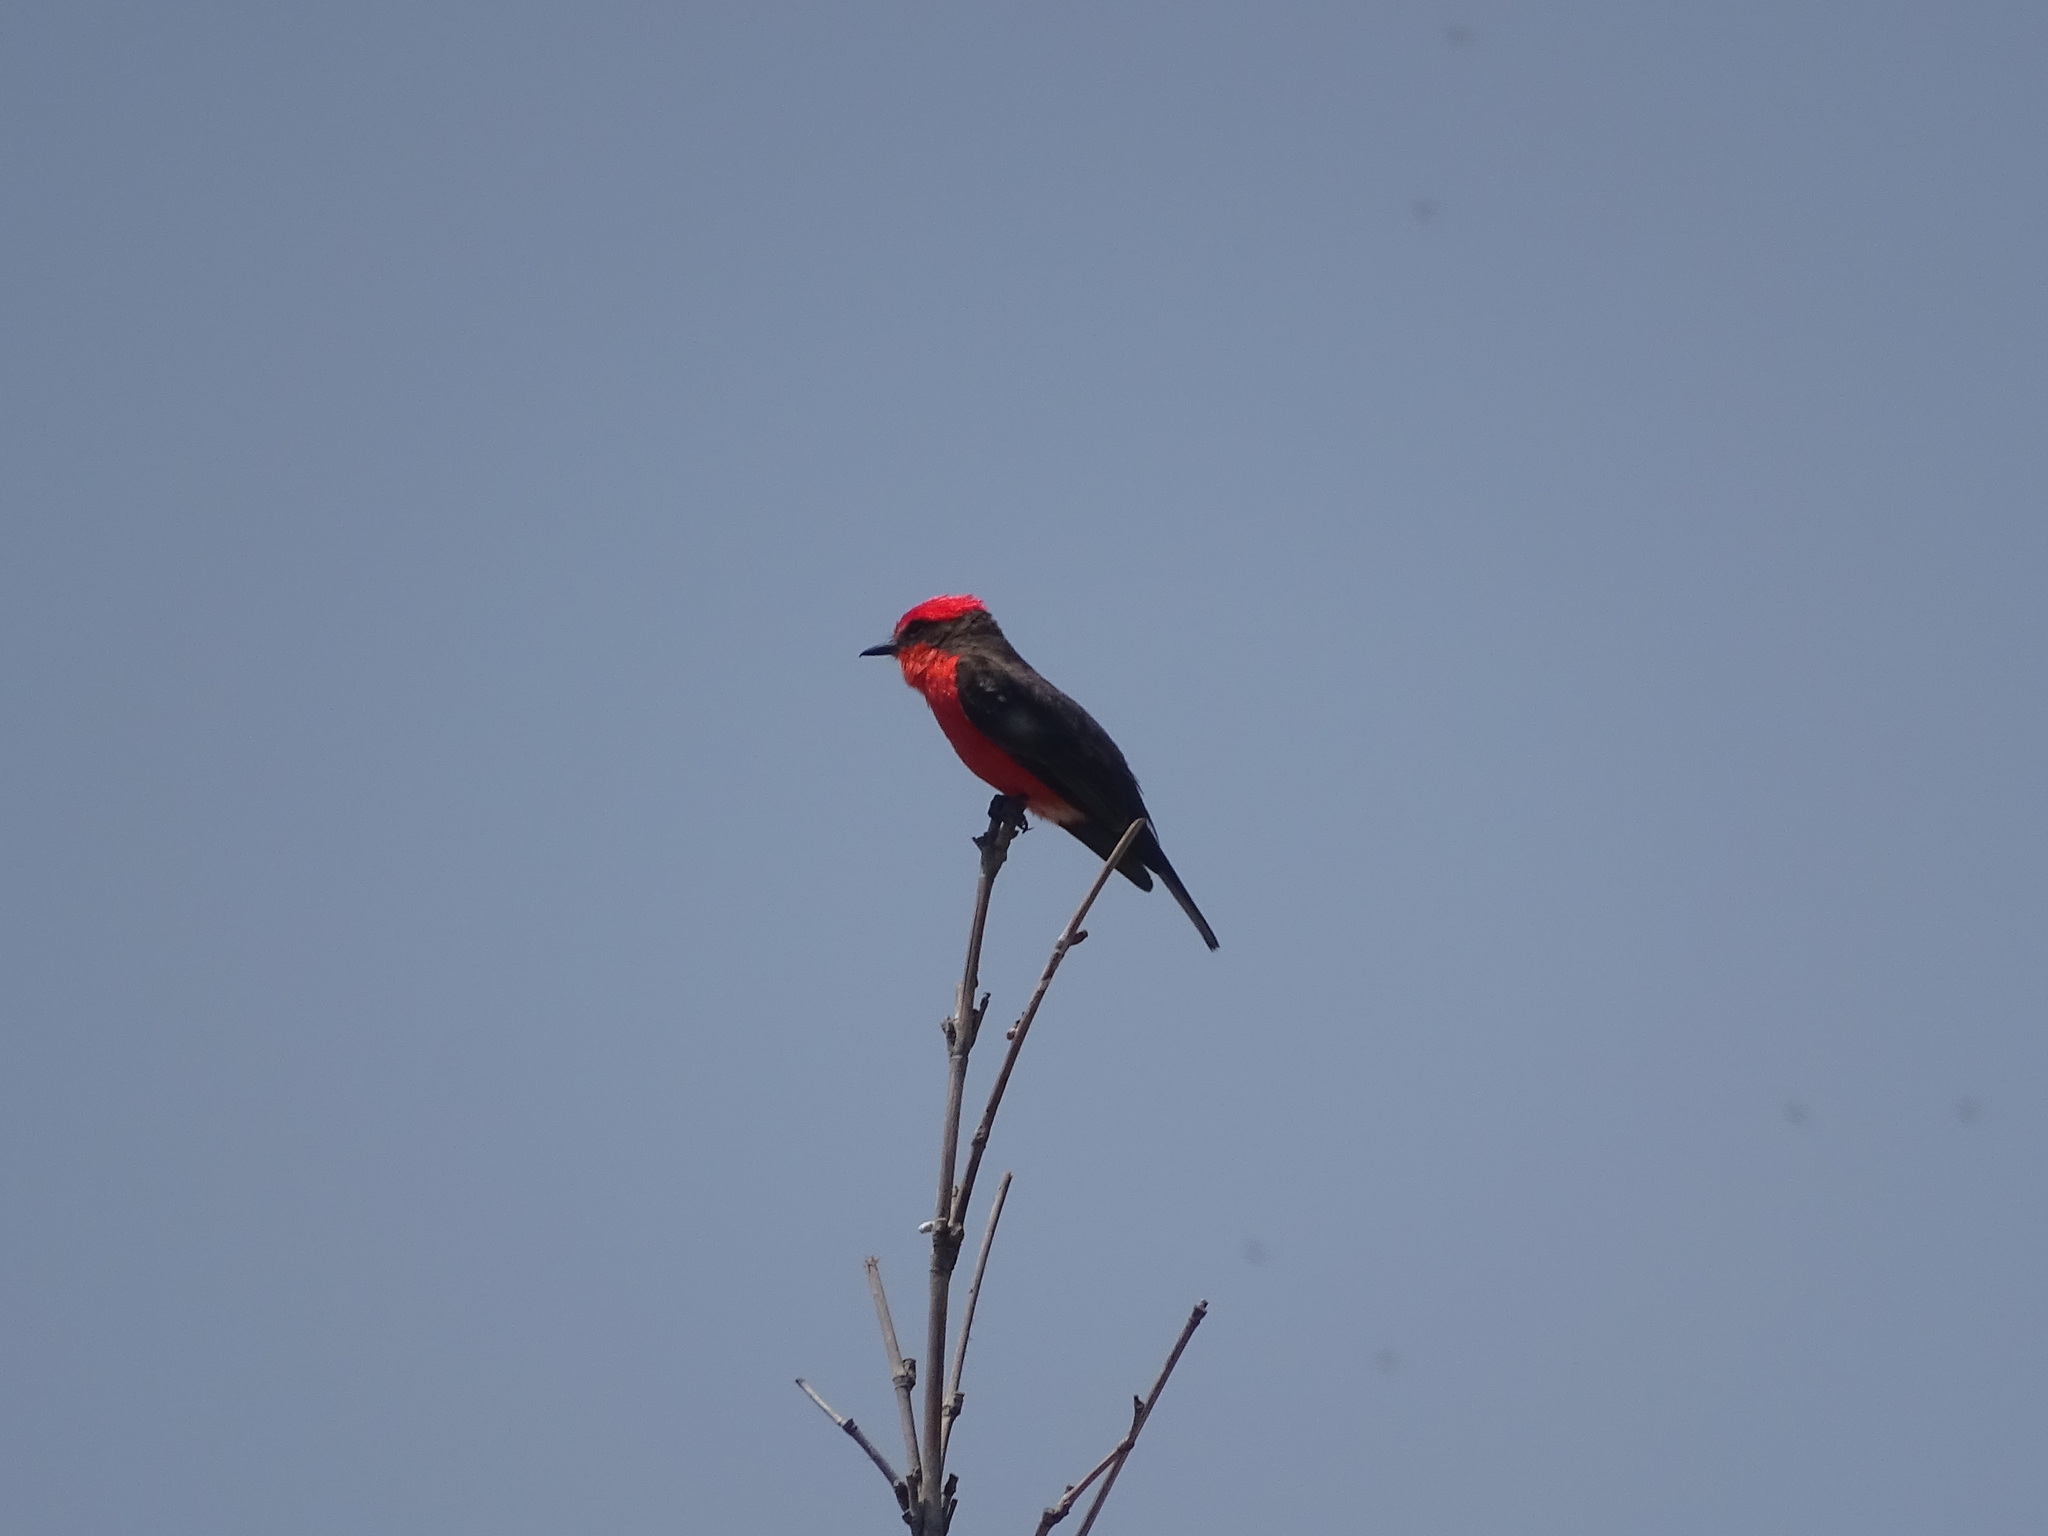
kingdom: Animalia
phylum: Chordata
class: Aves
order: Passeriformes
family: Tyrannidae
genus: Pyrocephalus
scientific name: Pyrocephalus rubinus
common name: Vermilion flycatcher
